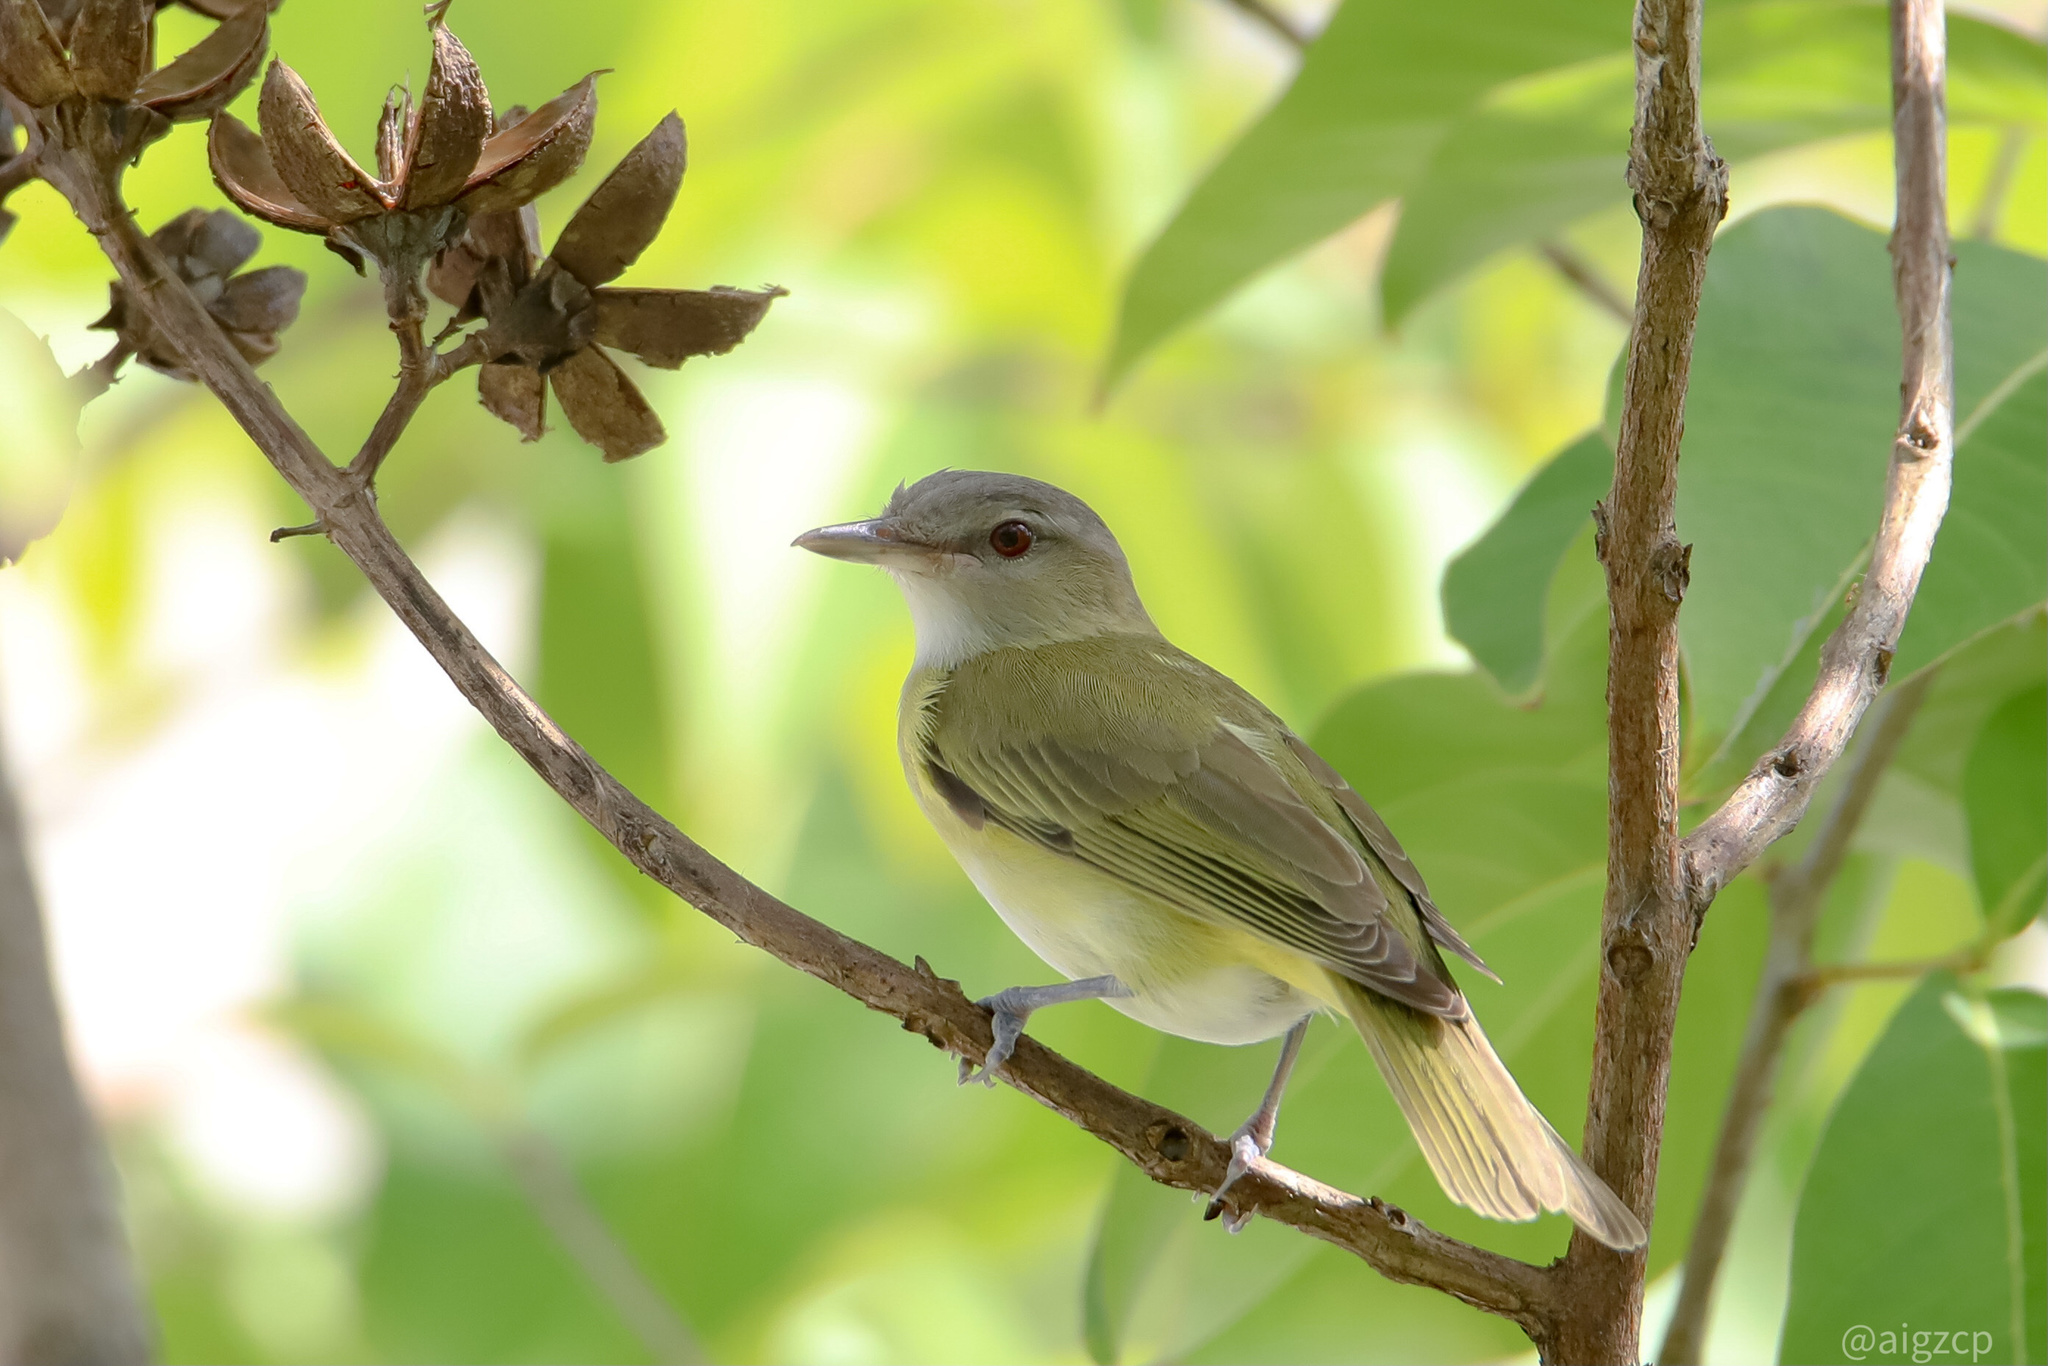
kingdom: Animalia
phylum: Chordata
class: Aves
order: Passeriformes
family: Vireonidae
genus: Vireo
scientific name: Vireo flavoviridis
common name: Yellow-green vireo
